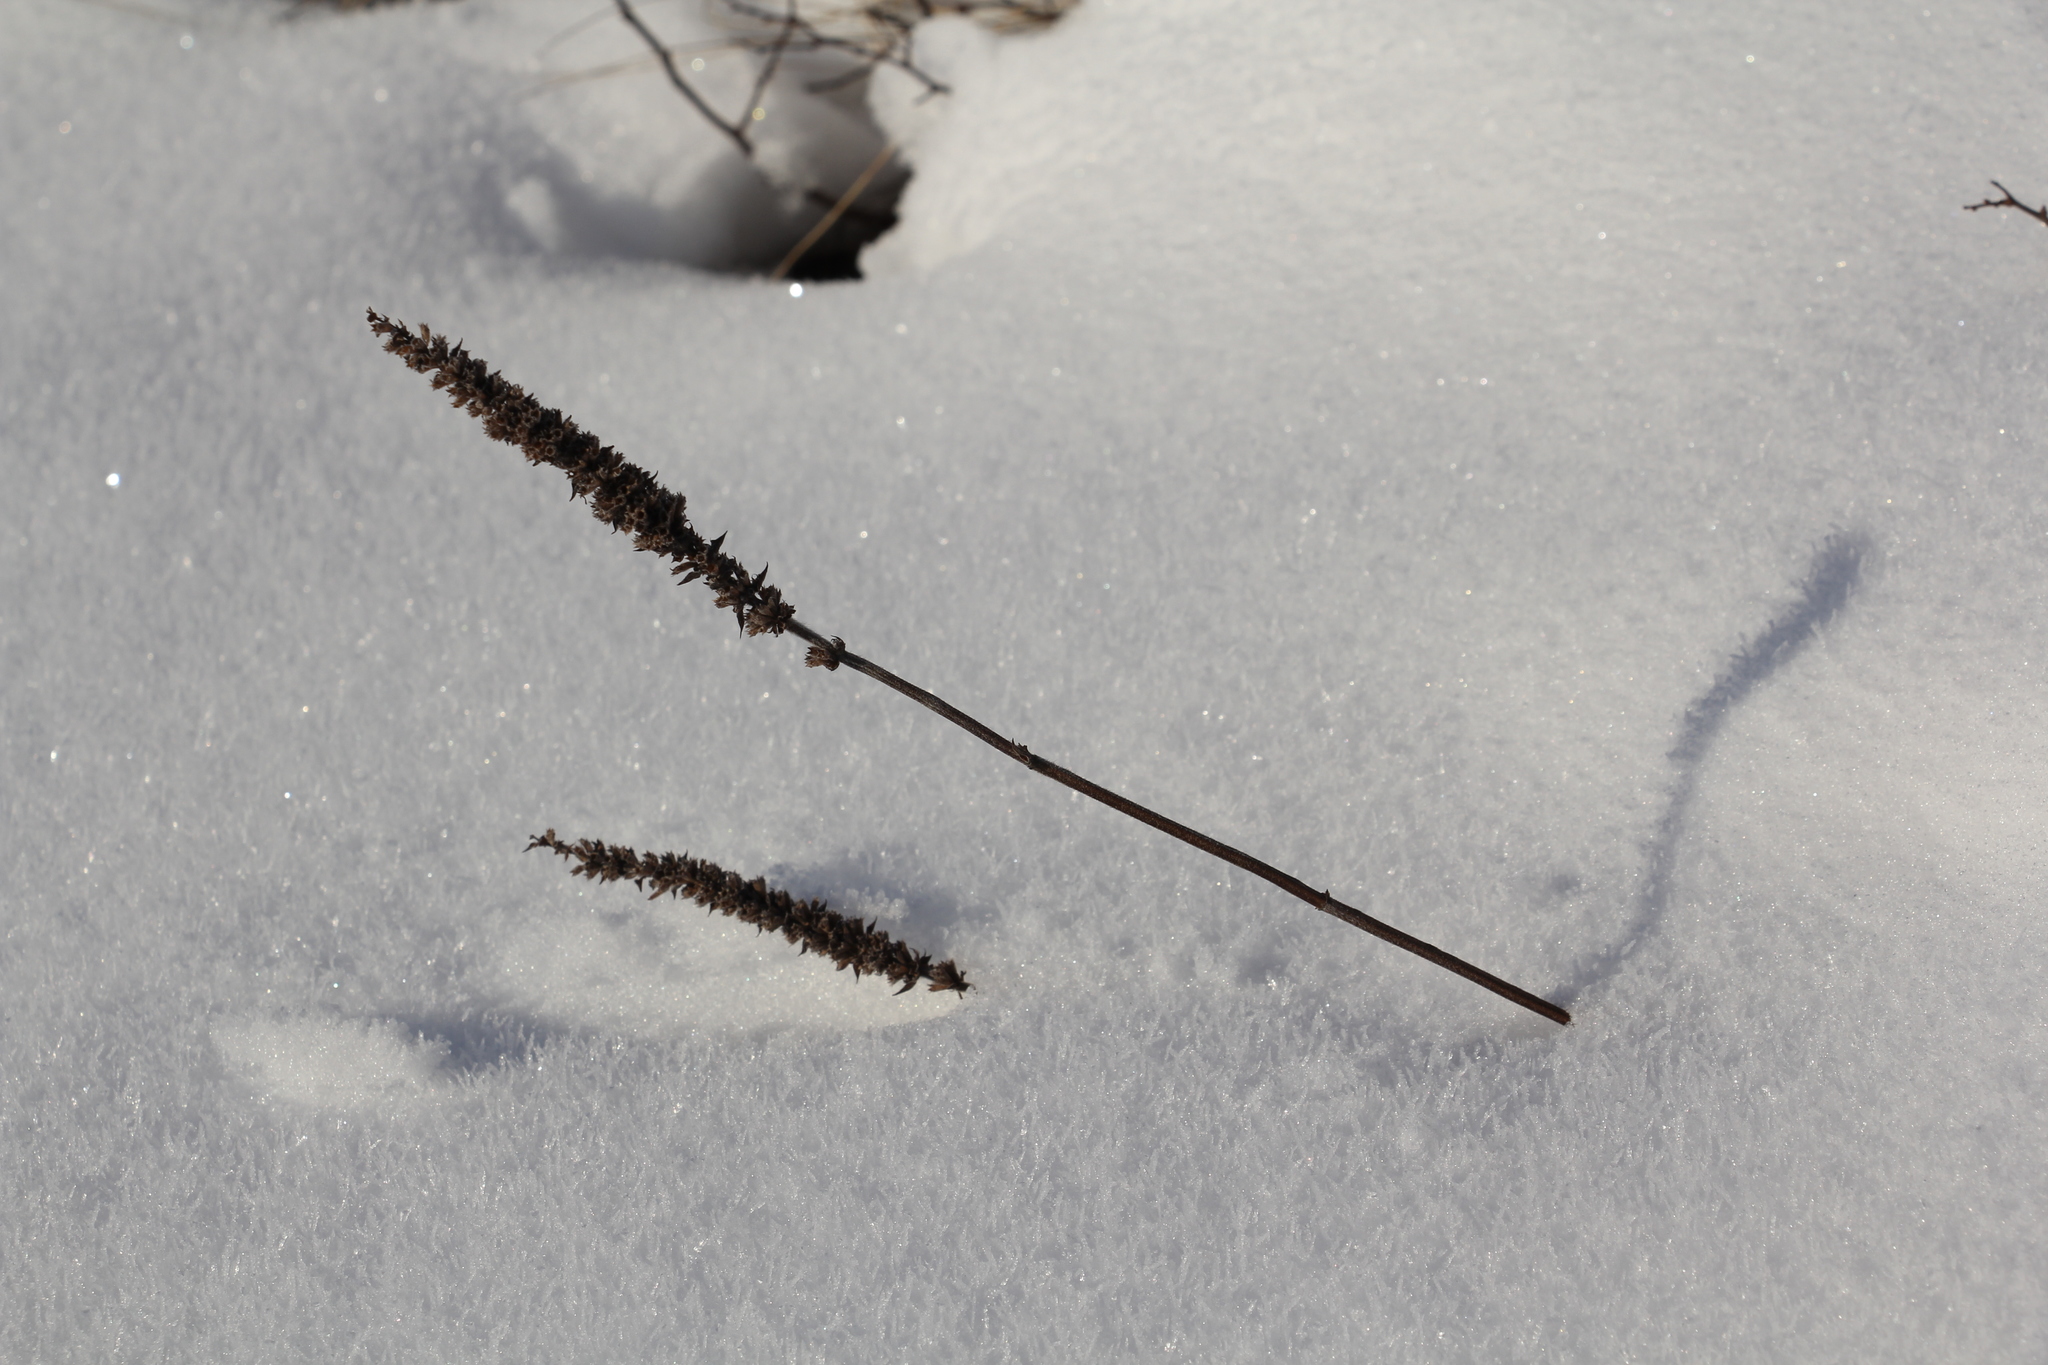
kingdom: Plantae
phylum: Tracheophyta
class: Magnoliopsida
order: Lamiales
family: Lamiaceae
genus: Nepeta
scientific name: Nepeta multifida
